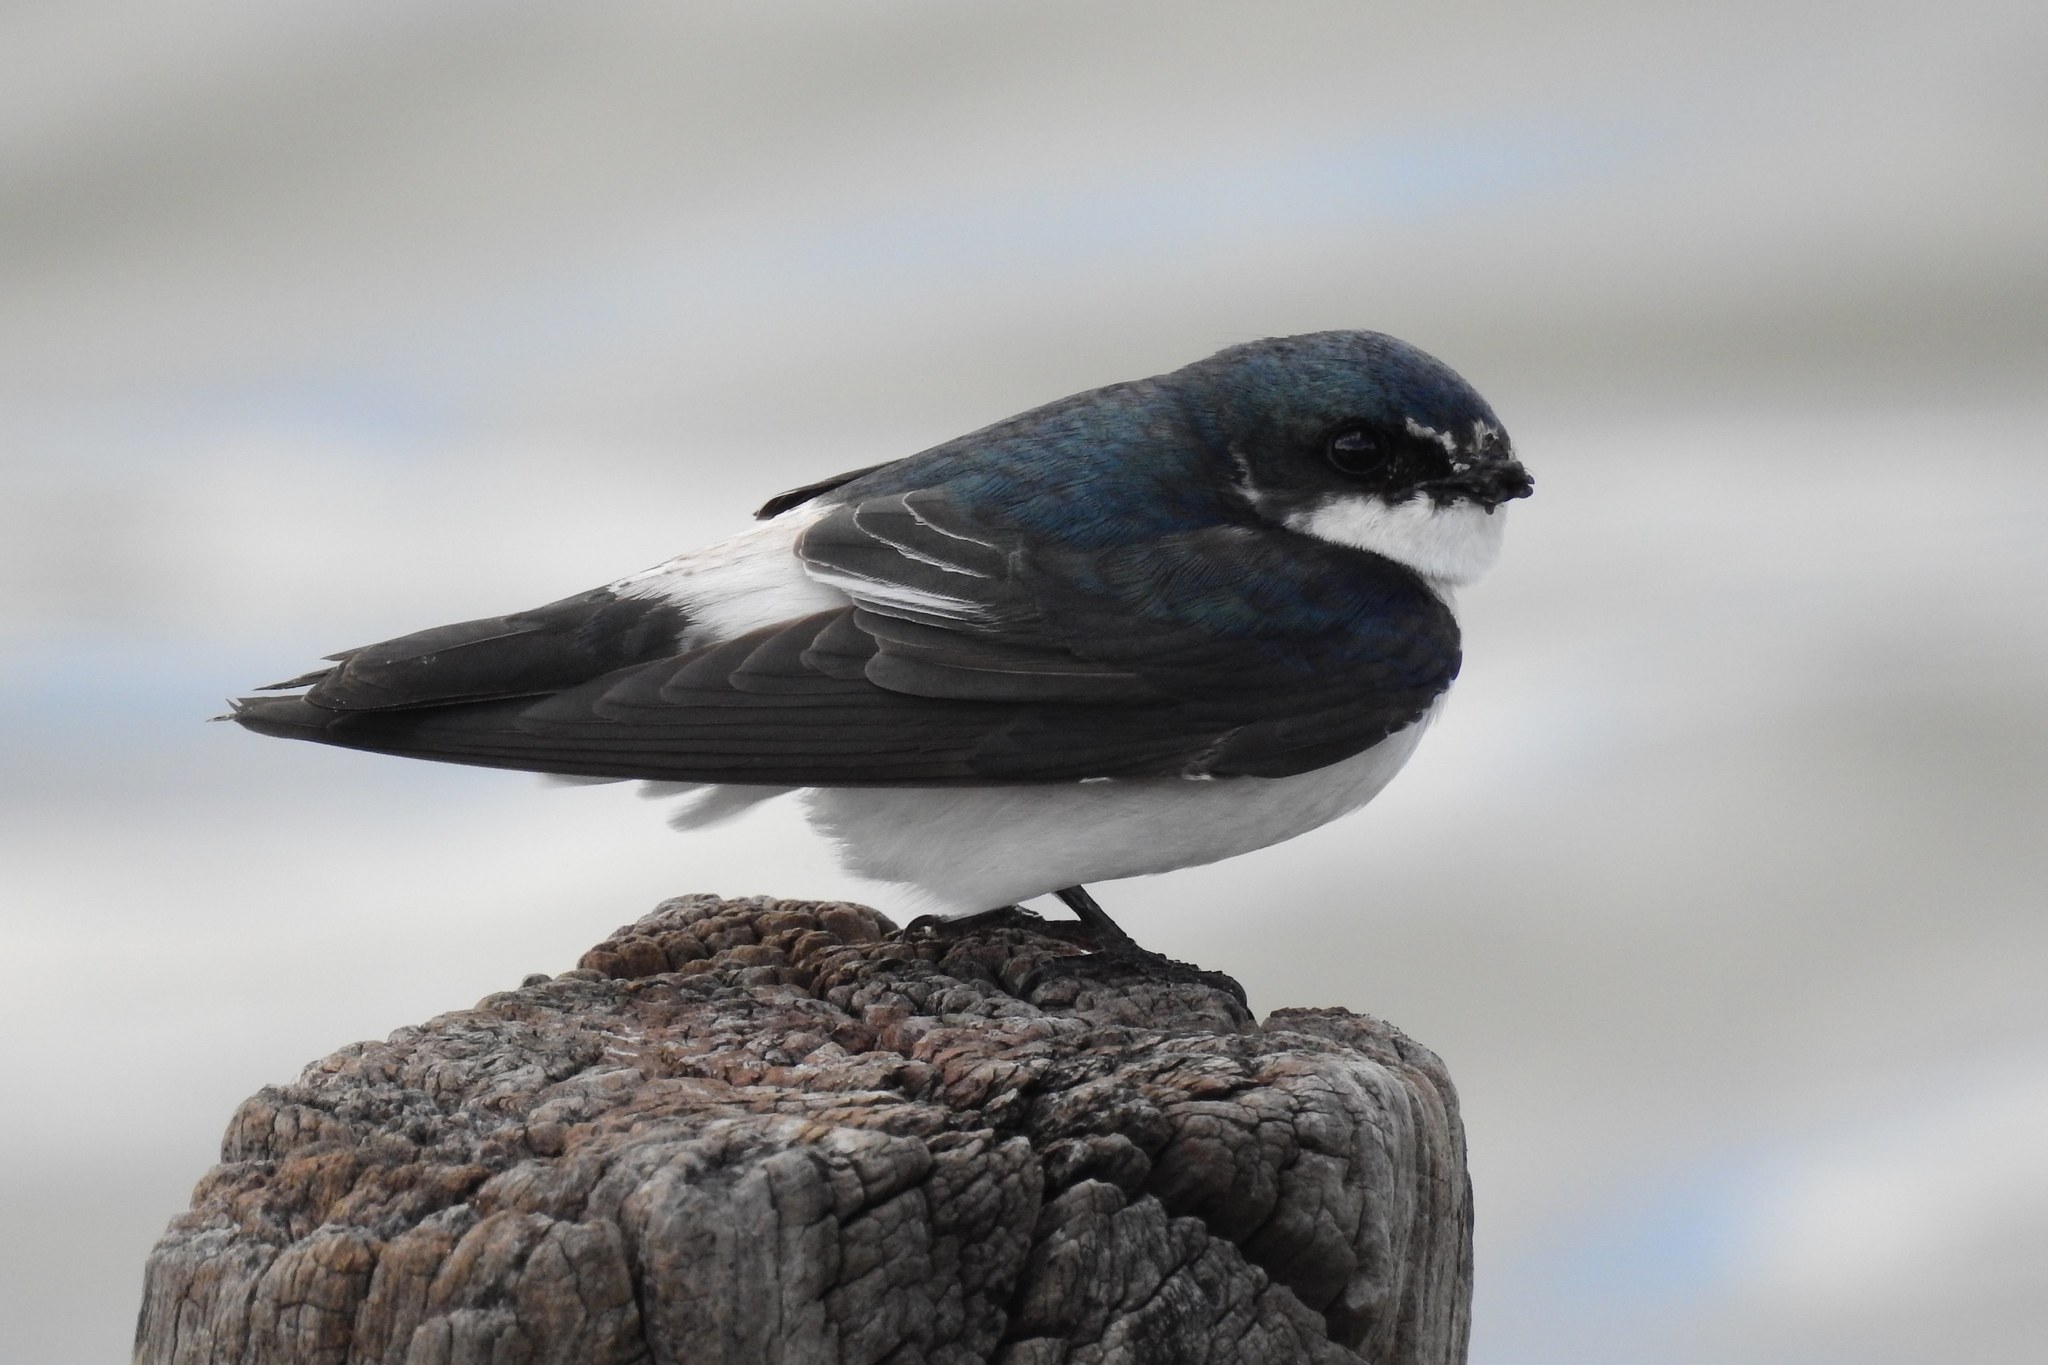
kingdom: Animalia
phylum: Chordata
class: Aves
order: Passeriformes
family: Hirundinidae
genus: Tachycineta
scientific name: Tachycineta albilinea
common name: Mangrove swallow
